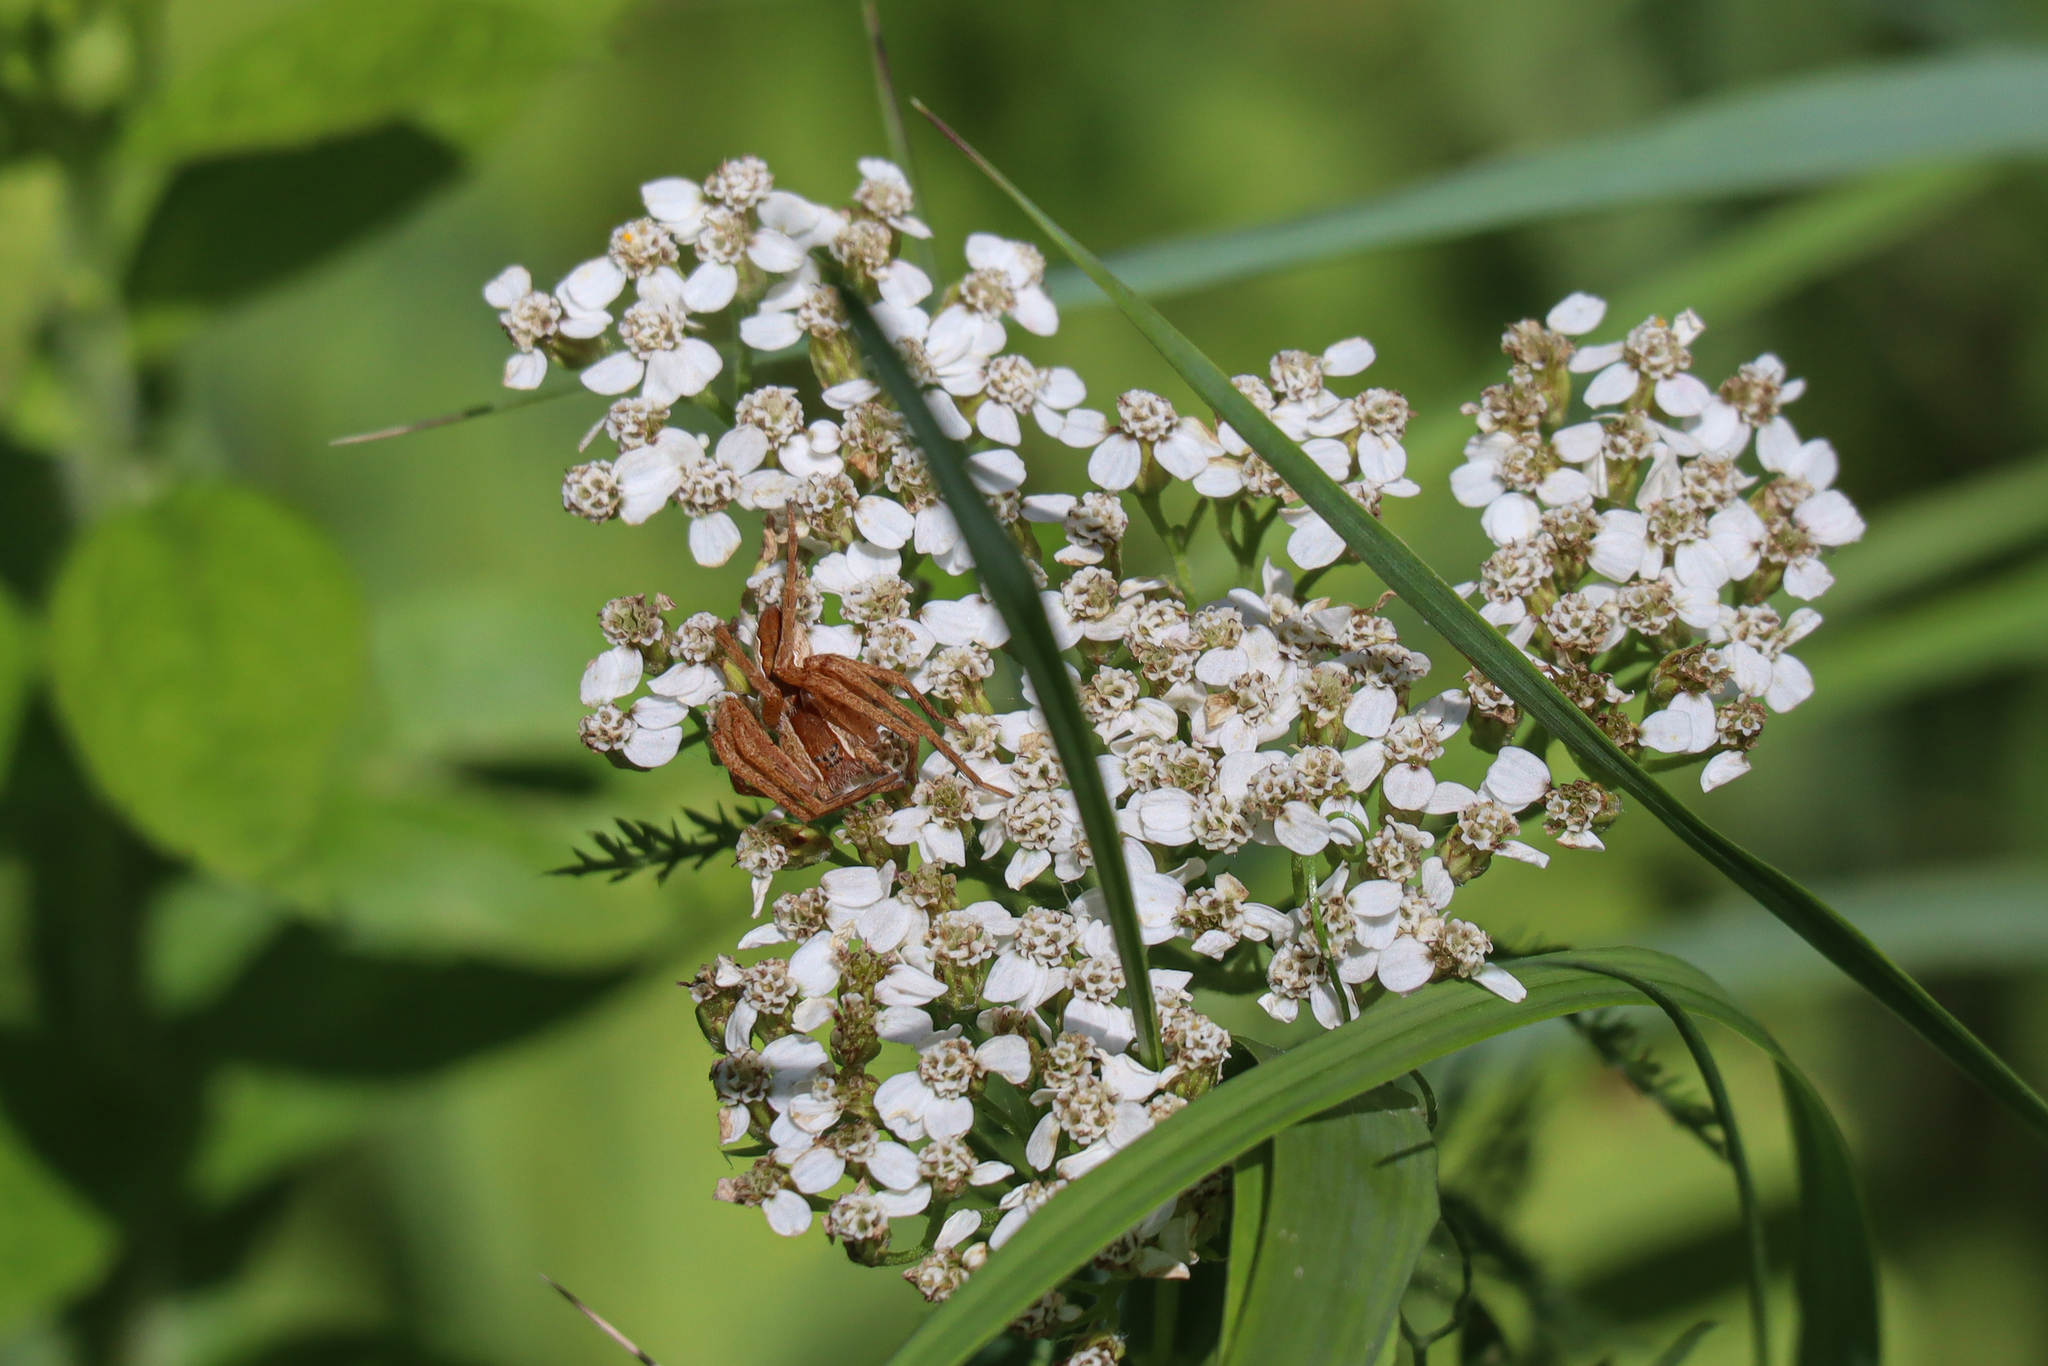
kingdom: Animalia
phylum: Arthropoda
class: Arachnida
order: Araneae
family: Pisauridae
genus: Pisaurina
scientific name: Pisaurina mira
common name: American nursery web spider
